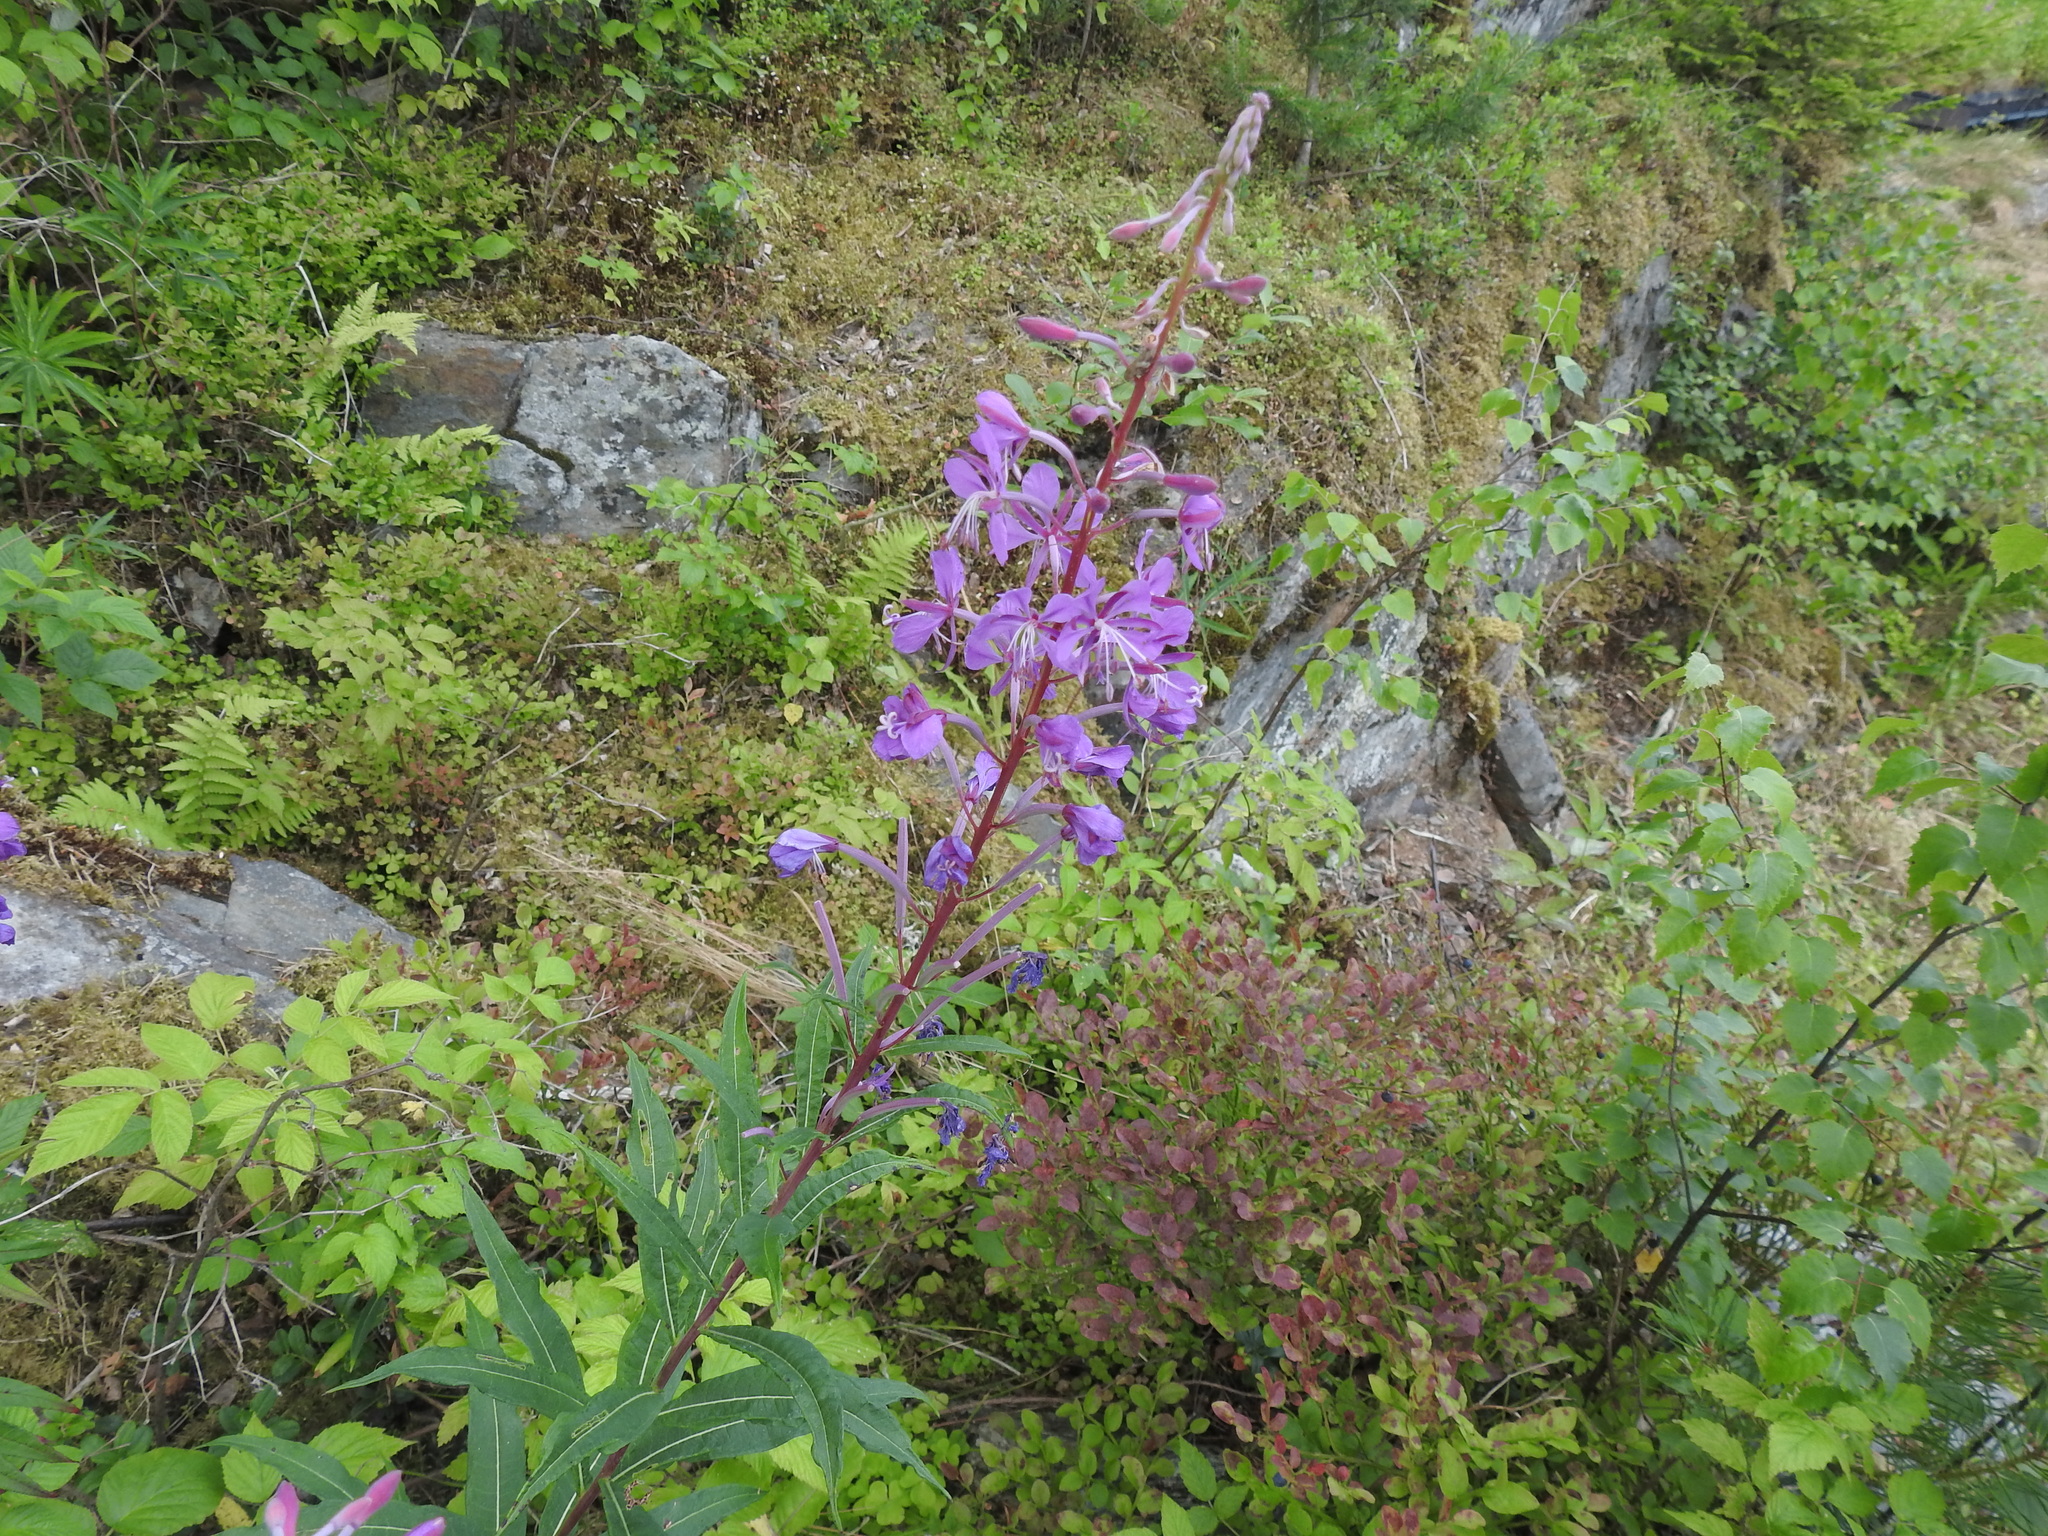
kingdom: Plantae
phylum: Tracheophyta
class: Magnoliopsida
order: Myrtales
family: Onagraceae
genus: Chamaenerion
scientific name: Chamaenerion angustifolium
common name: Fireweed
